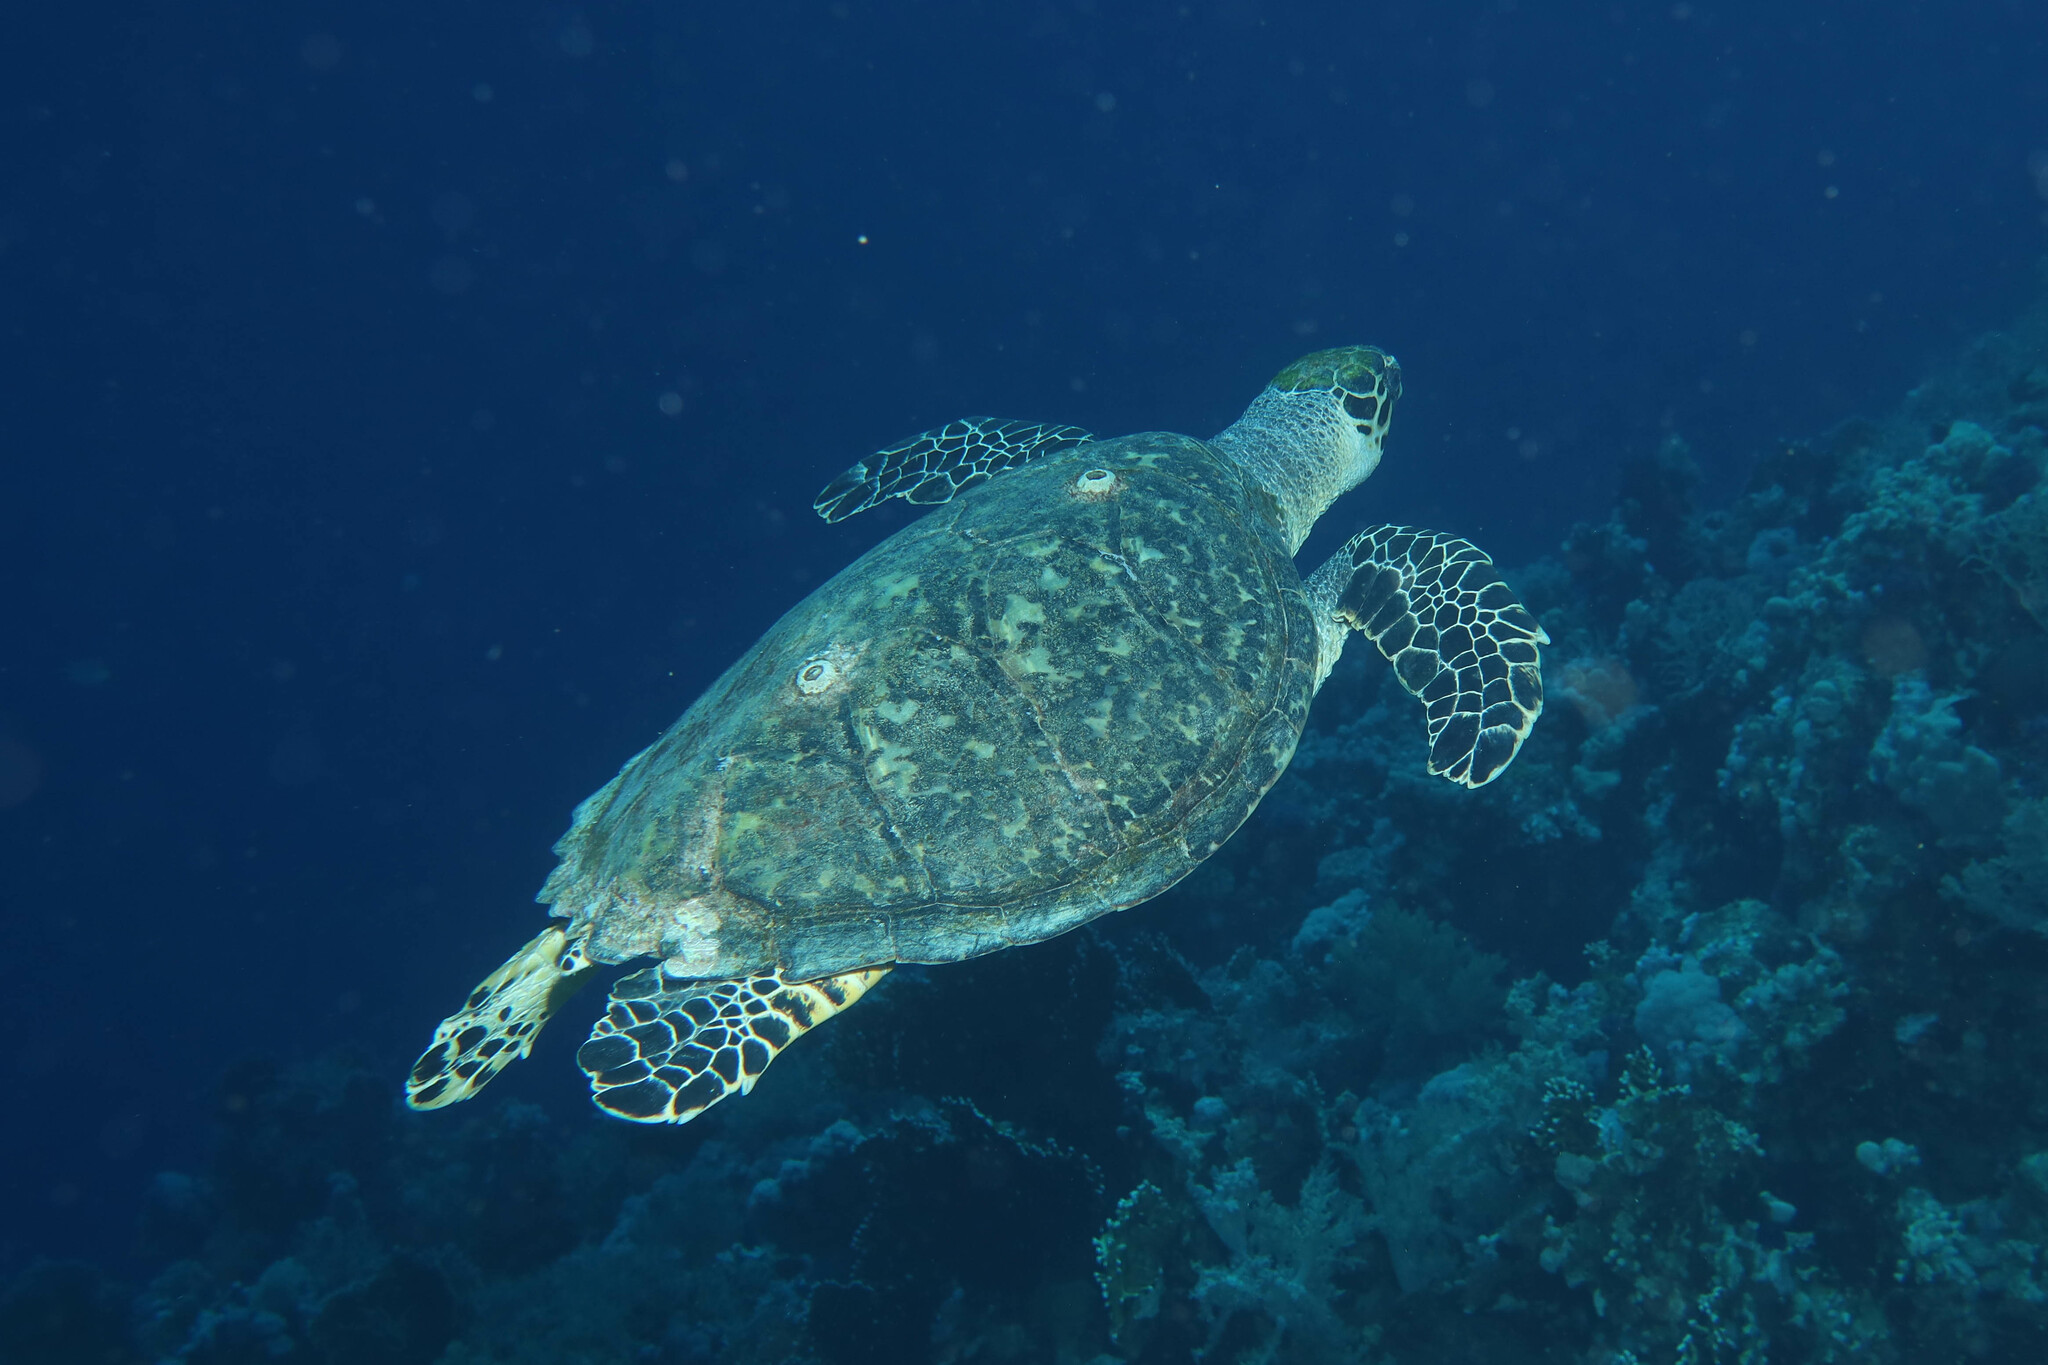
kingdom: Animalia
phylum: Chordata
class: Testudines
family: Cheloniidae
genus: Eretmochelys
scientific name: Eretmochelys imbricata
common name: Hawksbill turtle
